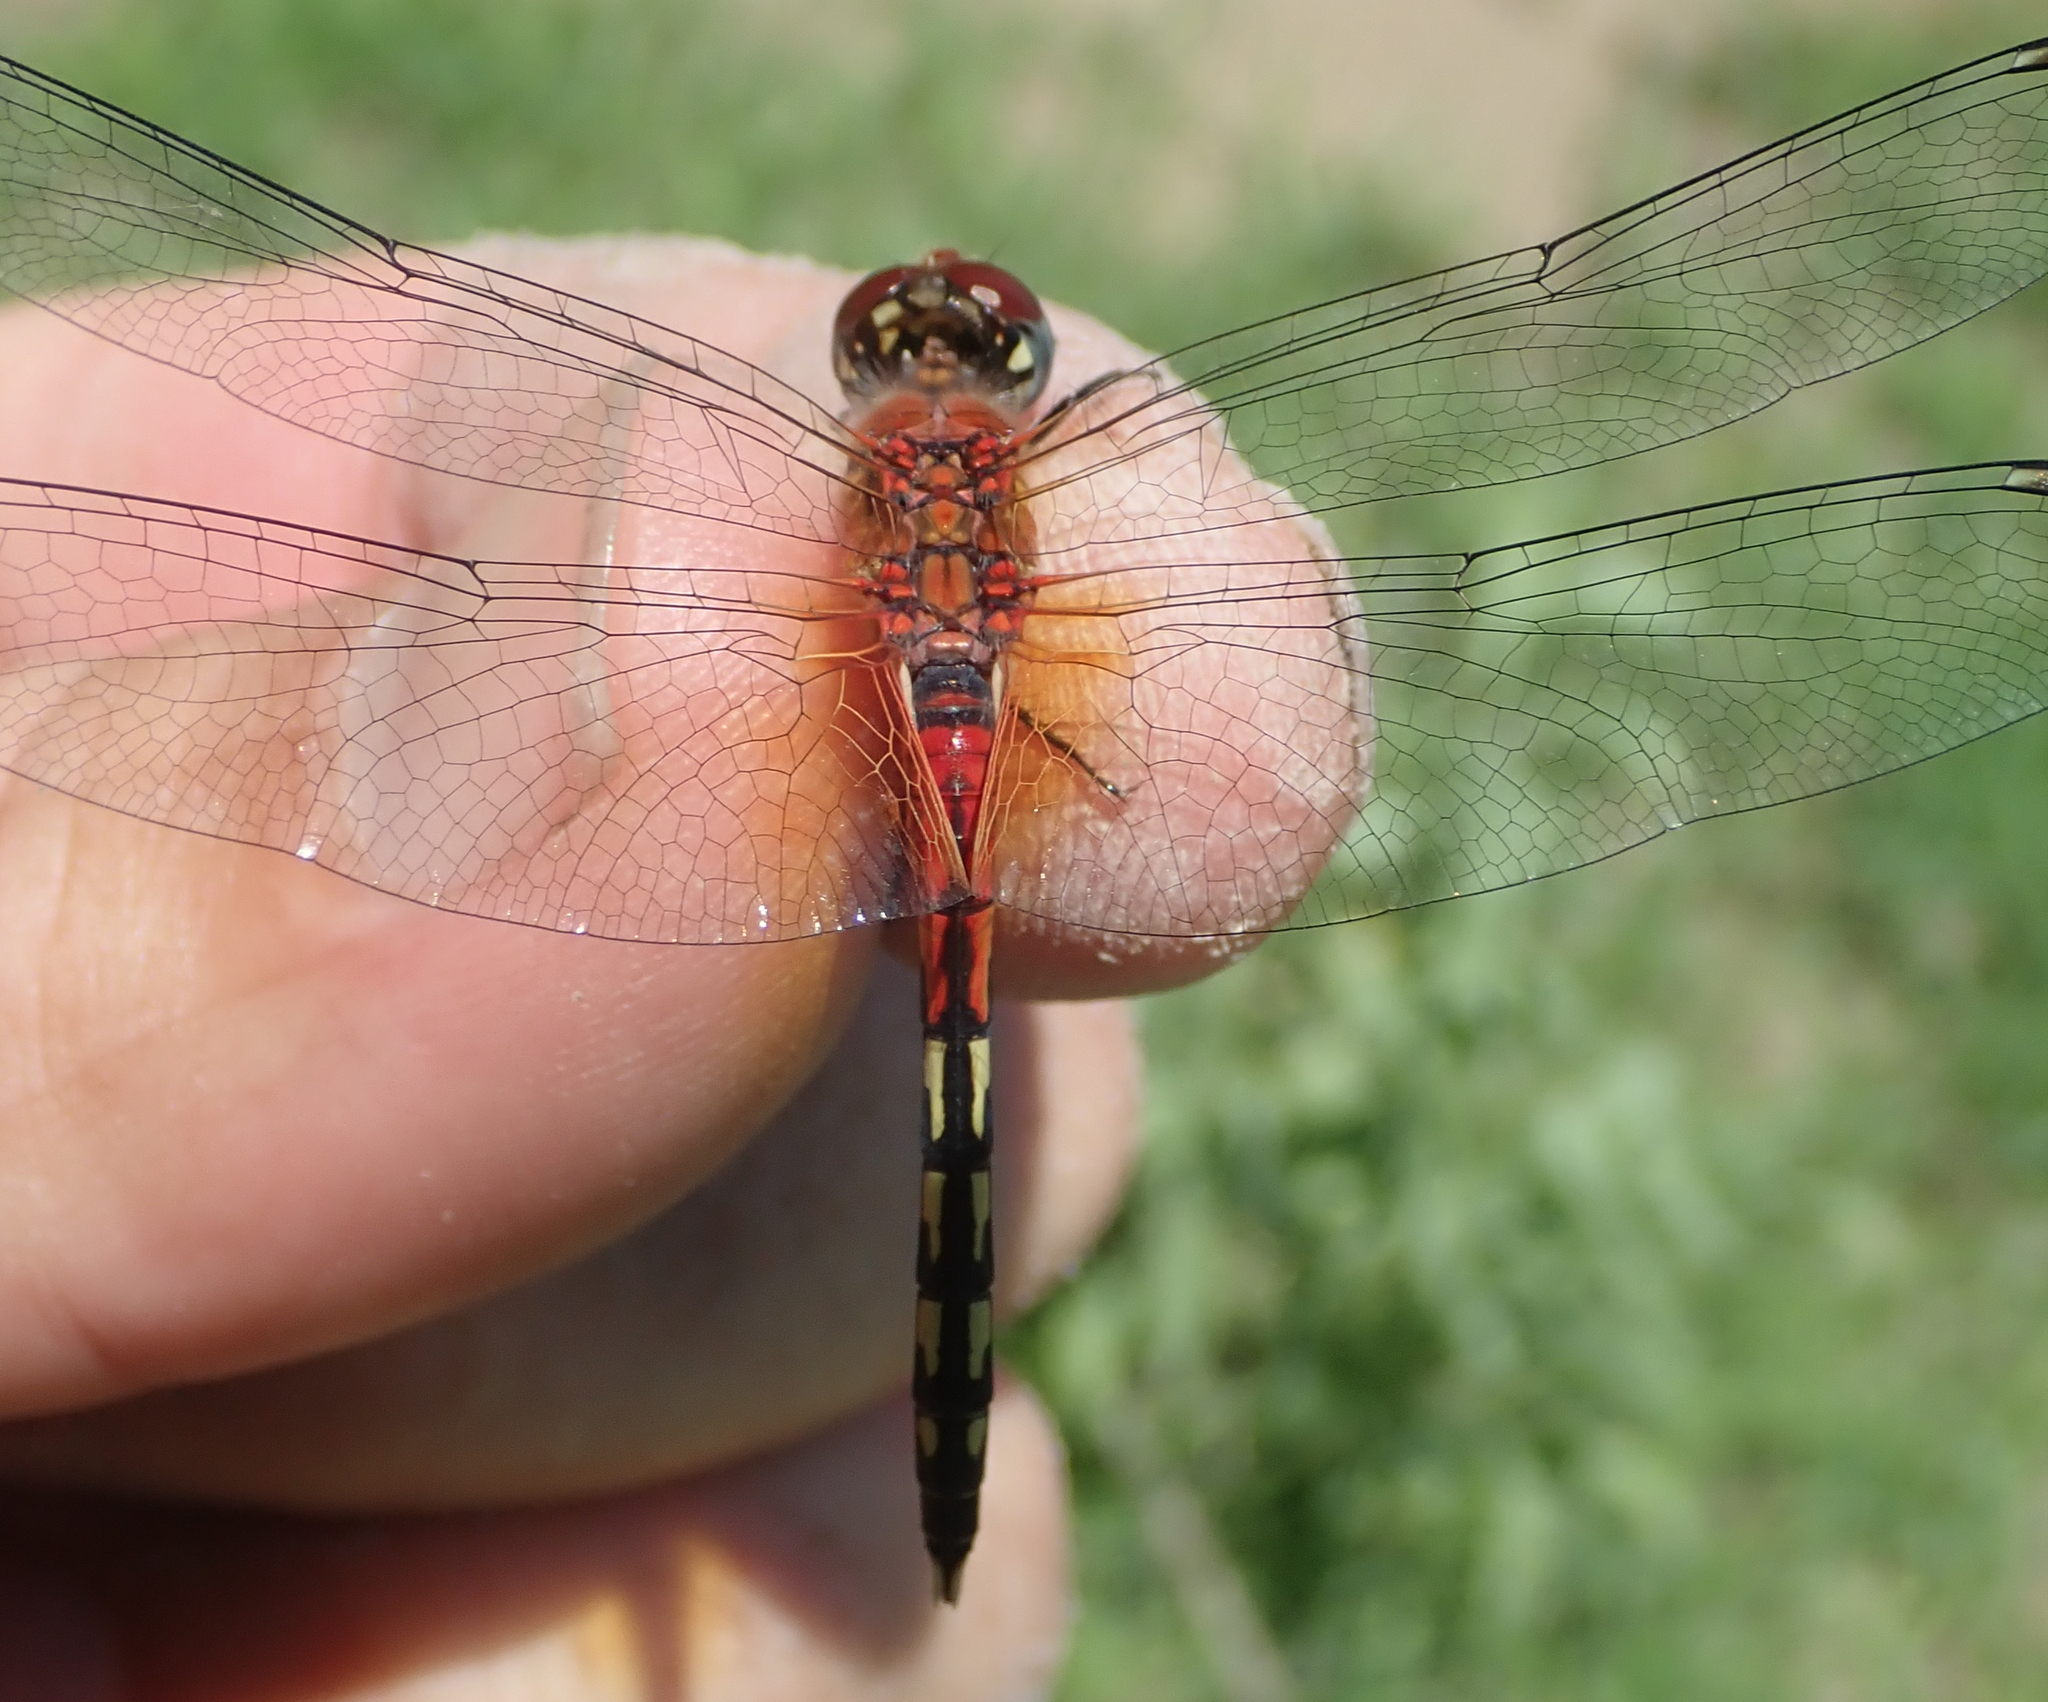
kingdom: Animalia
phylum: Arthropoda
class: Insecta
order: Odonata
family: Libellulidae
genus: Diplacodes
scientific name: Diplacodes luminans
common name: Barbet percher
